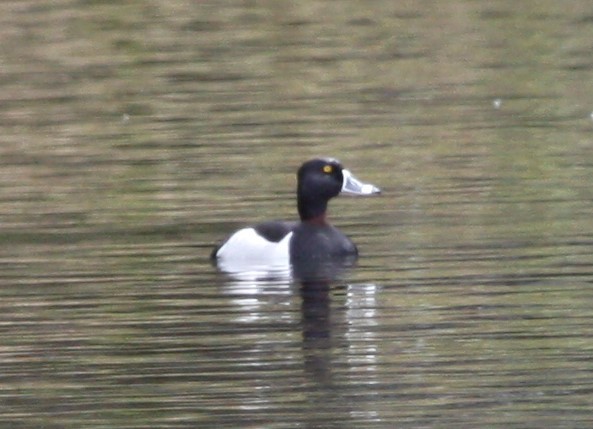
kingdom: Animalia
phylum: Chordata
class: Aves
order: Anseriformes
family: Anatidae
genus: Aythya
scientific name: Aythya collaris
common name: Ring-necked duck
